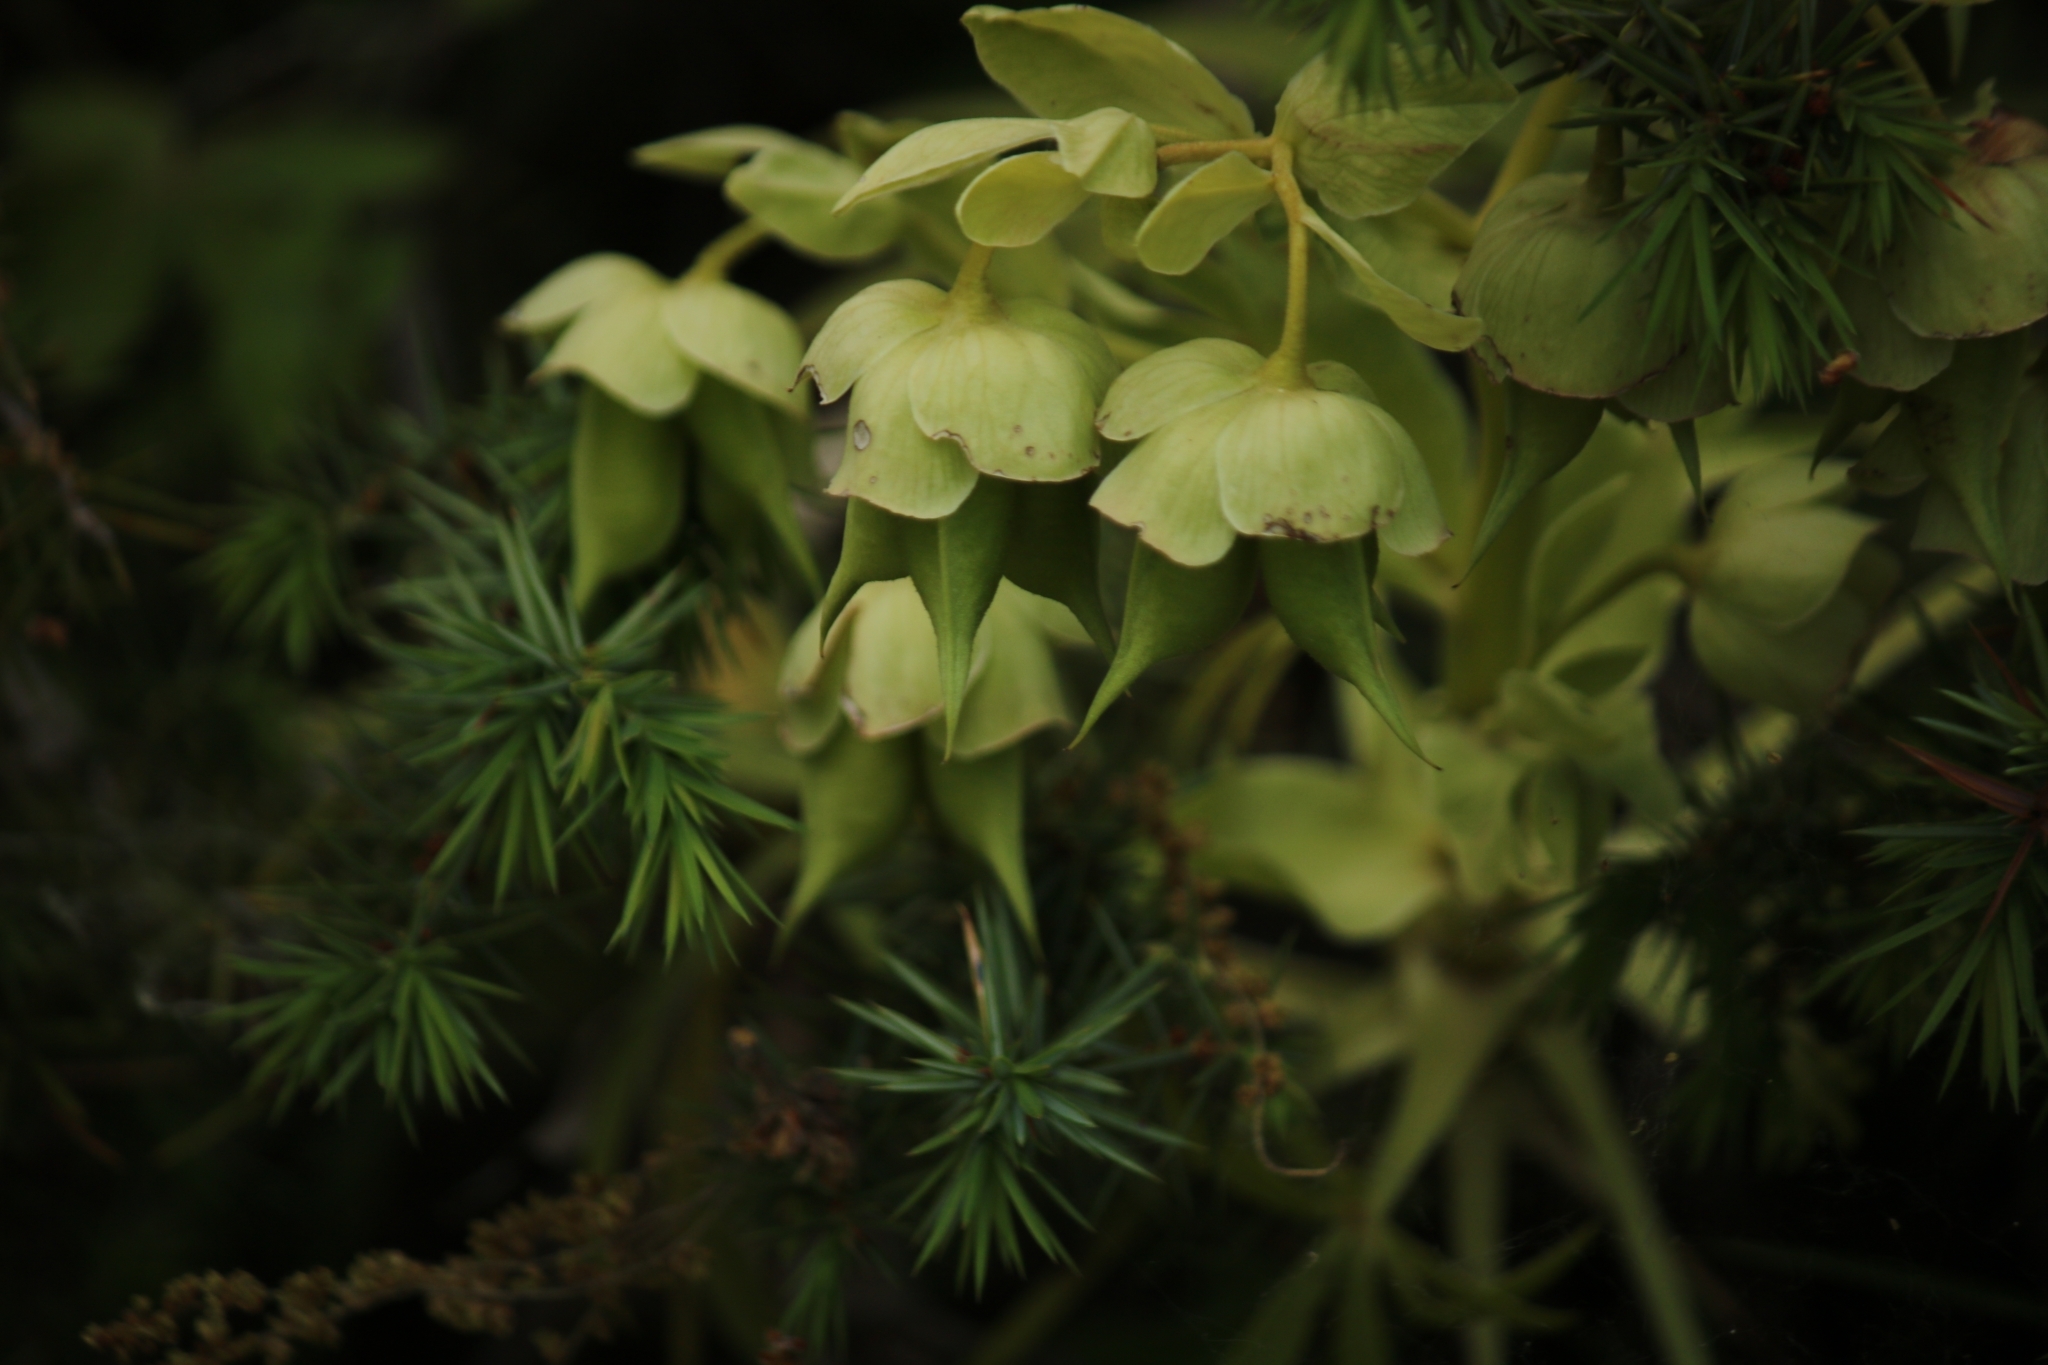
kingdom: Plantae
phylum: Tracheophyta
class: Magnoliopsida
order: Ranunculales
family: Ranunculaceae
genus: Helleborus
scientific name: Helleborus foetidus
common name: Stinking hellebore
